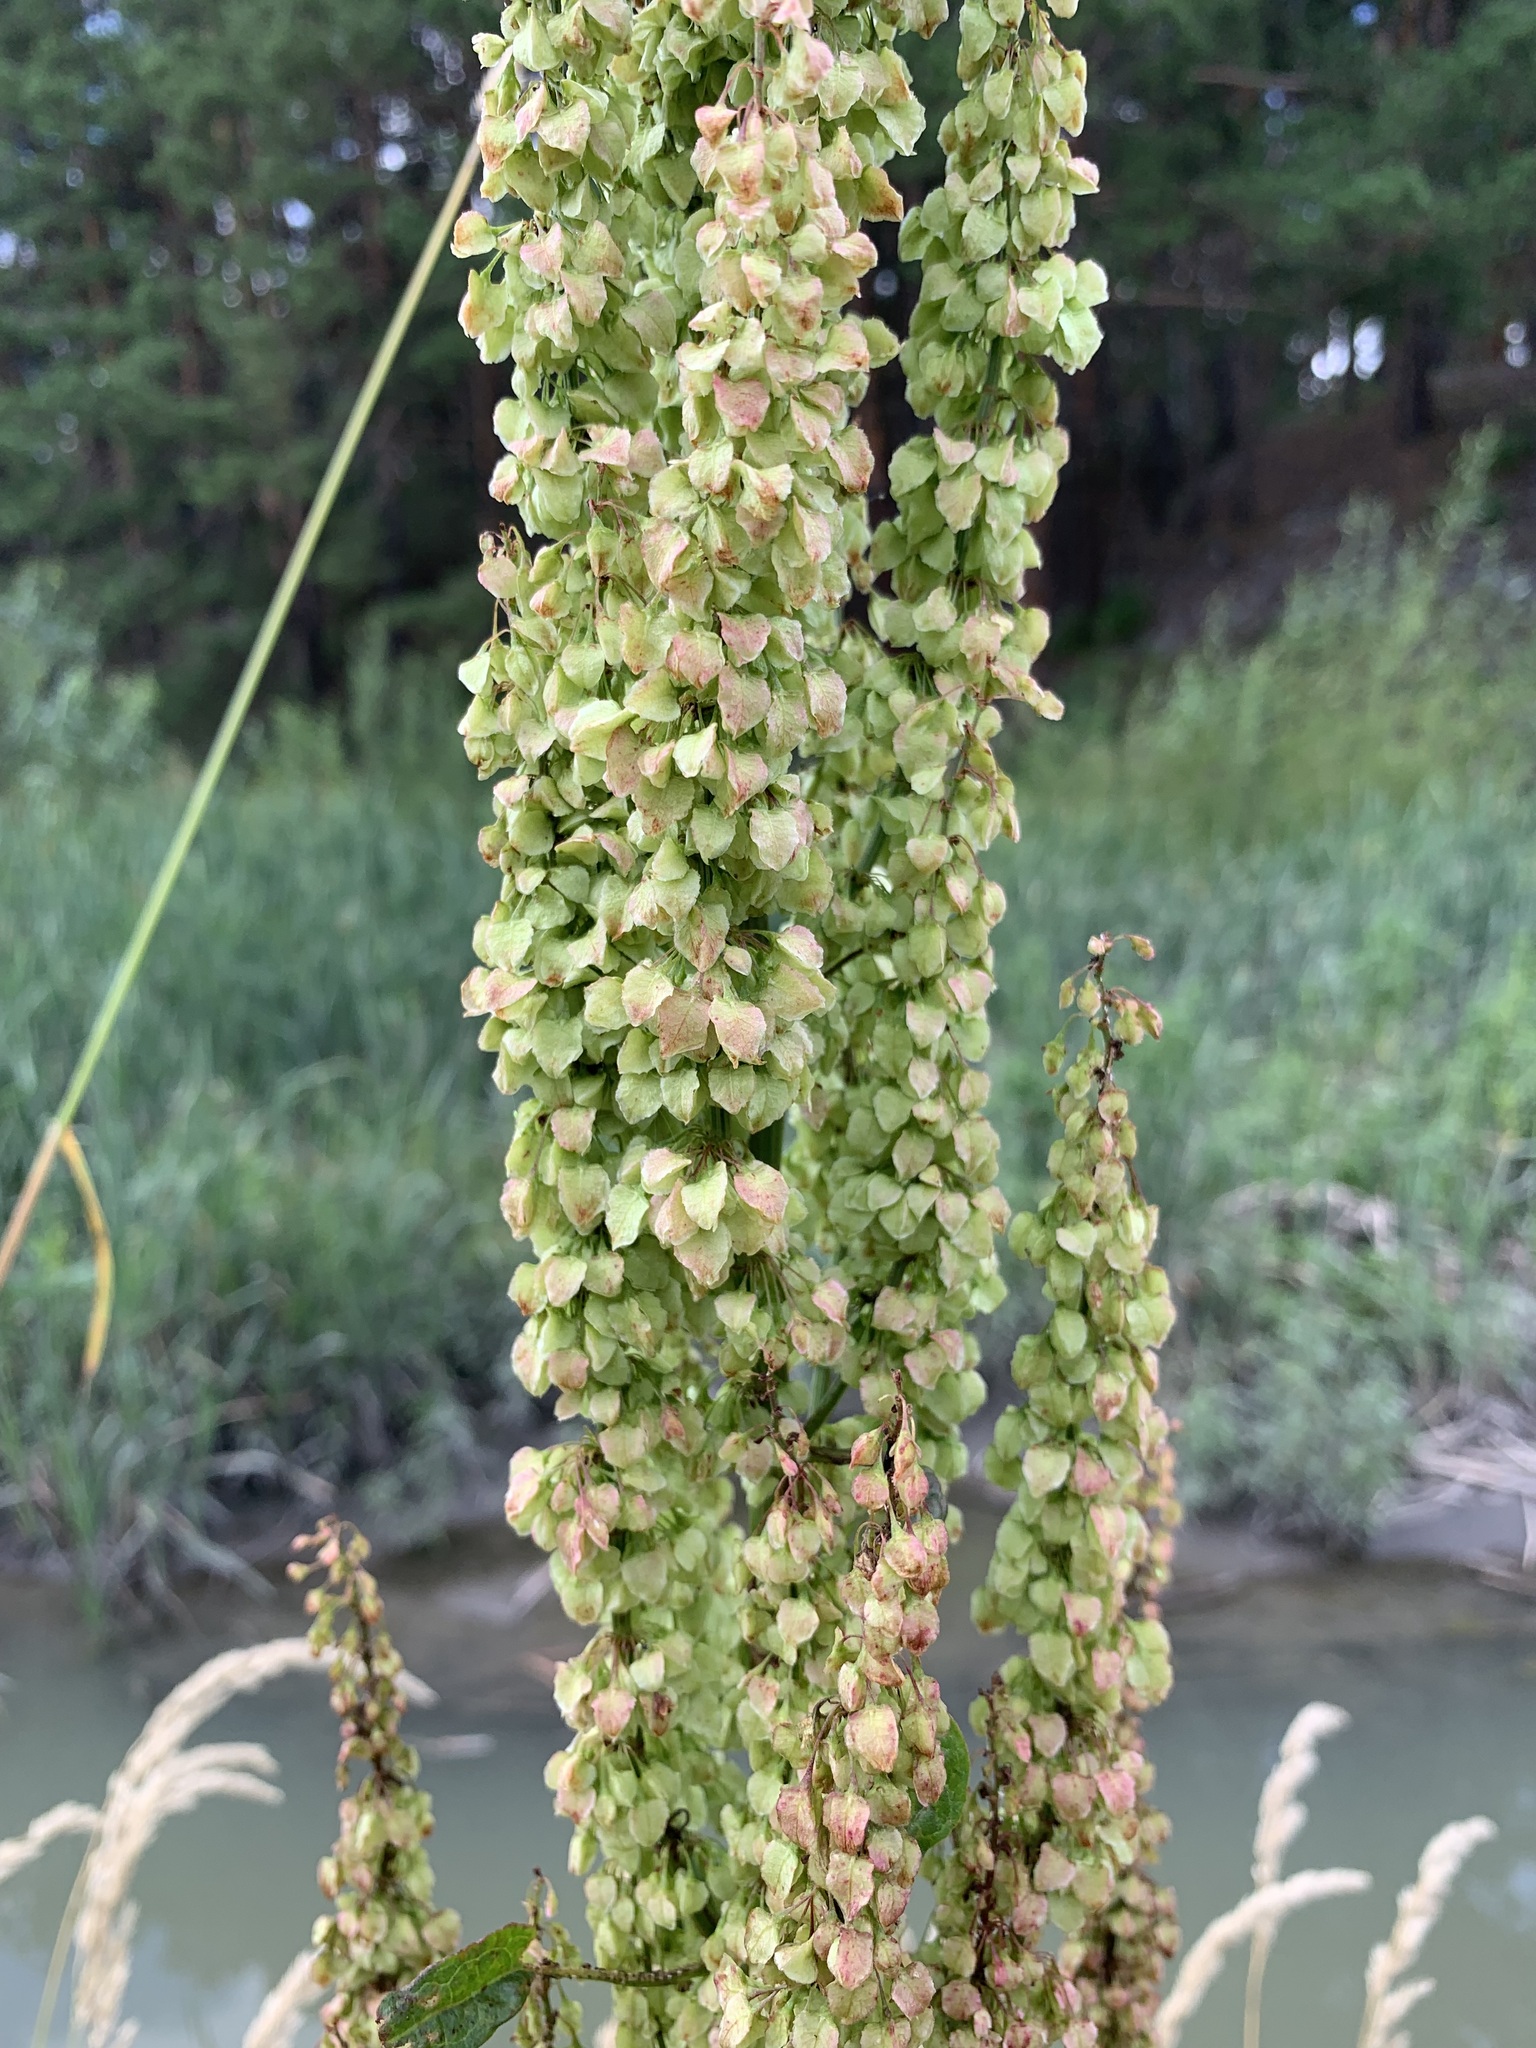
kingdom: Plantae
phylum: Tracheophyta
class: Magnoliopsida
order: Caryophyllales
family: Polygonaceae
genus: Rumex
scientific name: Rumex aquaticus
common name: Scottish dock
